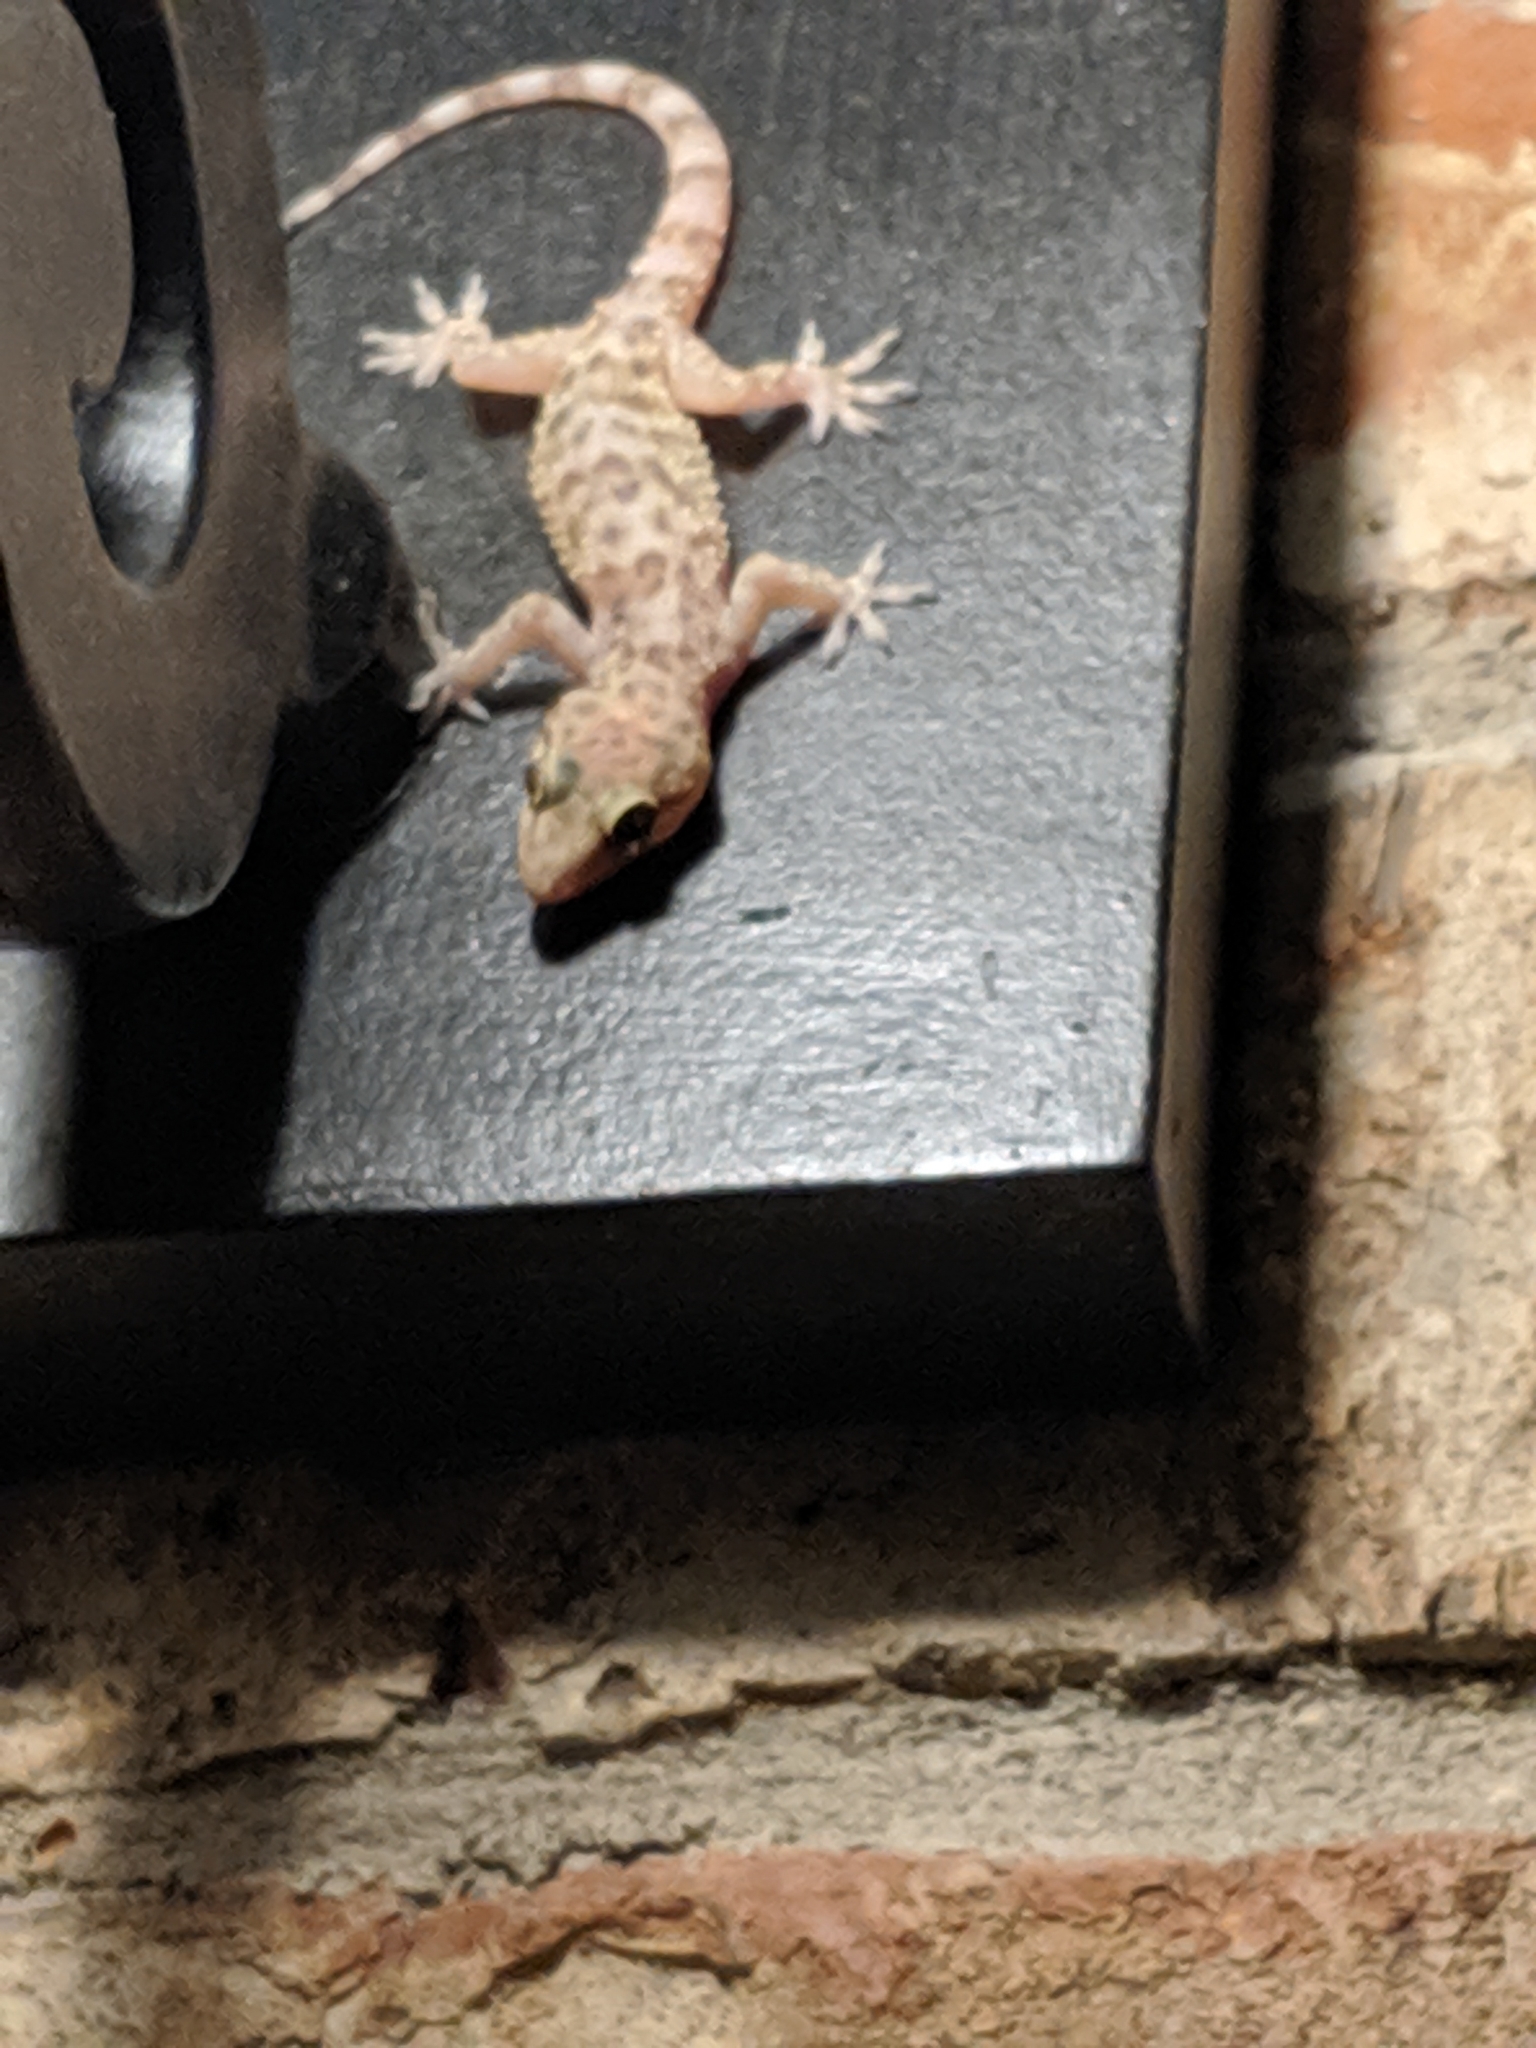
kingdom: Animalia
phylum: Chordata
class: Squamata
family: Gekkonidae
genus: Hemidactylus
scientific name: Hemidactylus turcicus
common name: Turkish gecko
